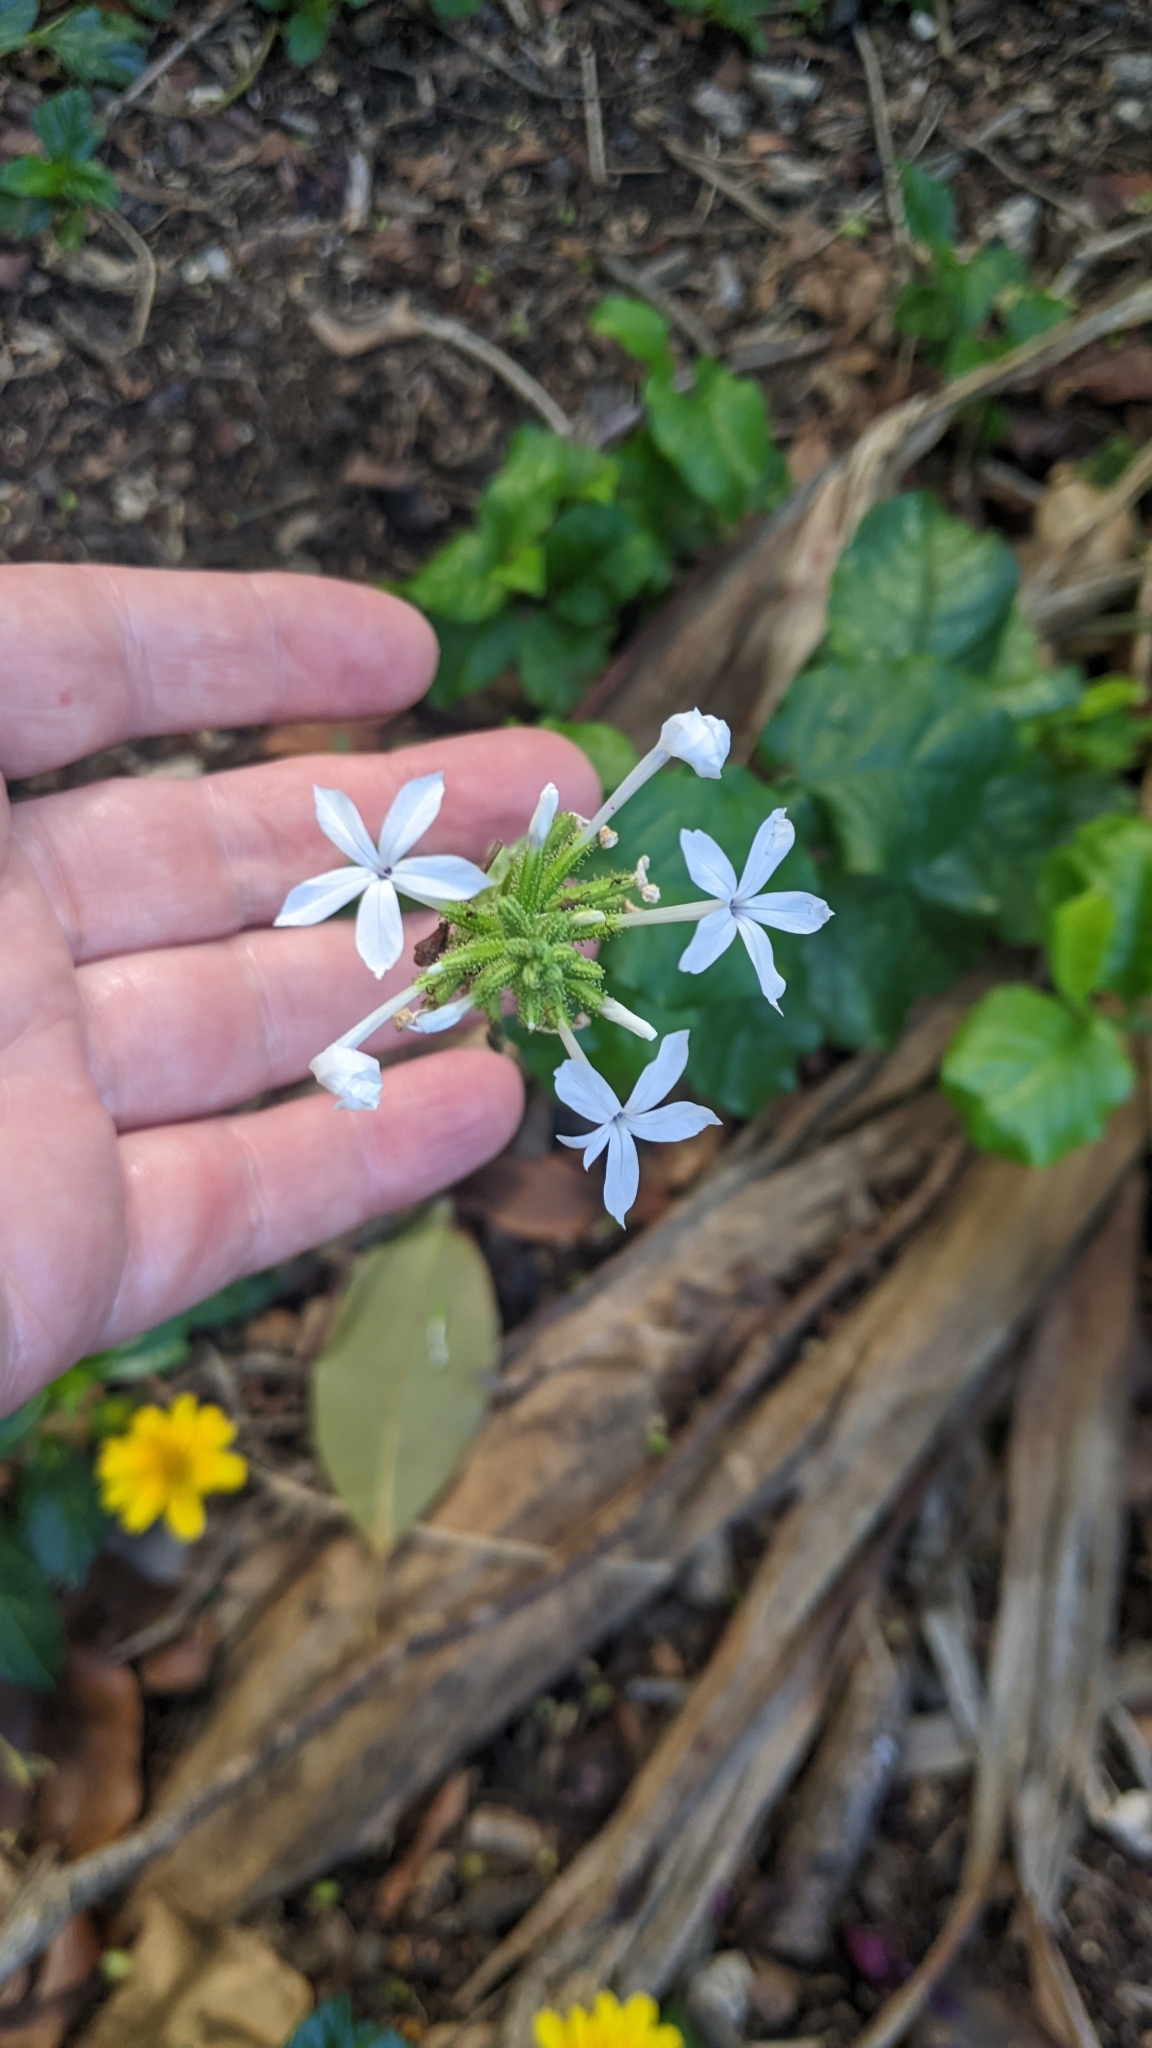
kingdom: Plantae
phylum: Tracheophyta
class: Magnoliopsida
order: Caryophyllales
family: Plumbaginaceae
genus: Plumbago
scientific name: Plumbago zeylanica
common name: Doctorbush
